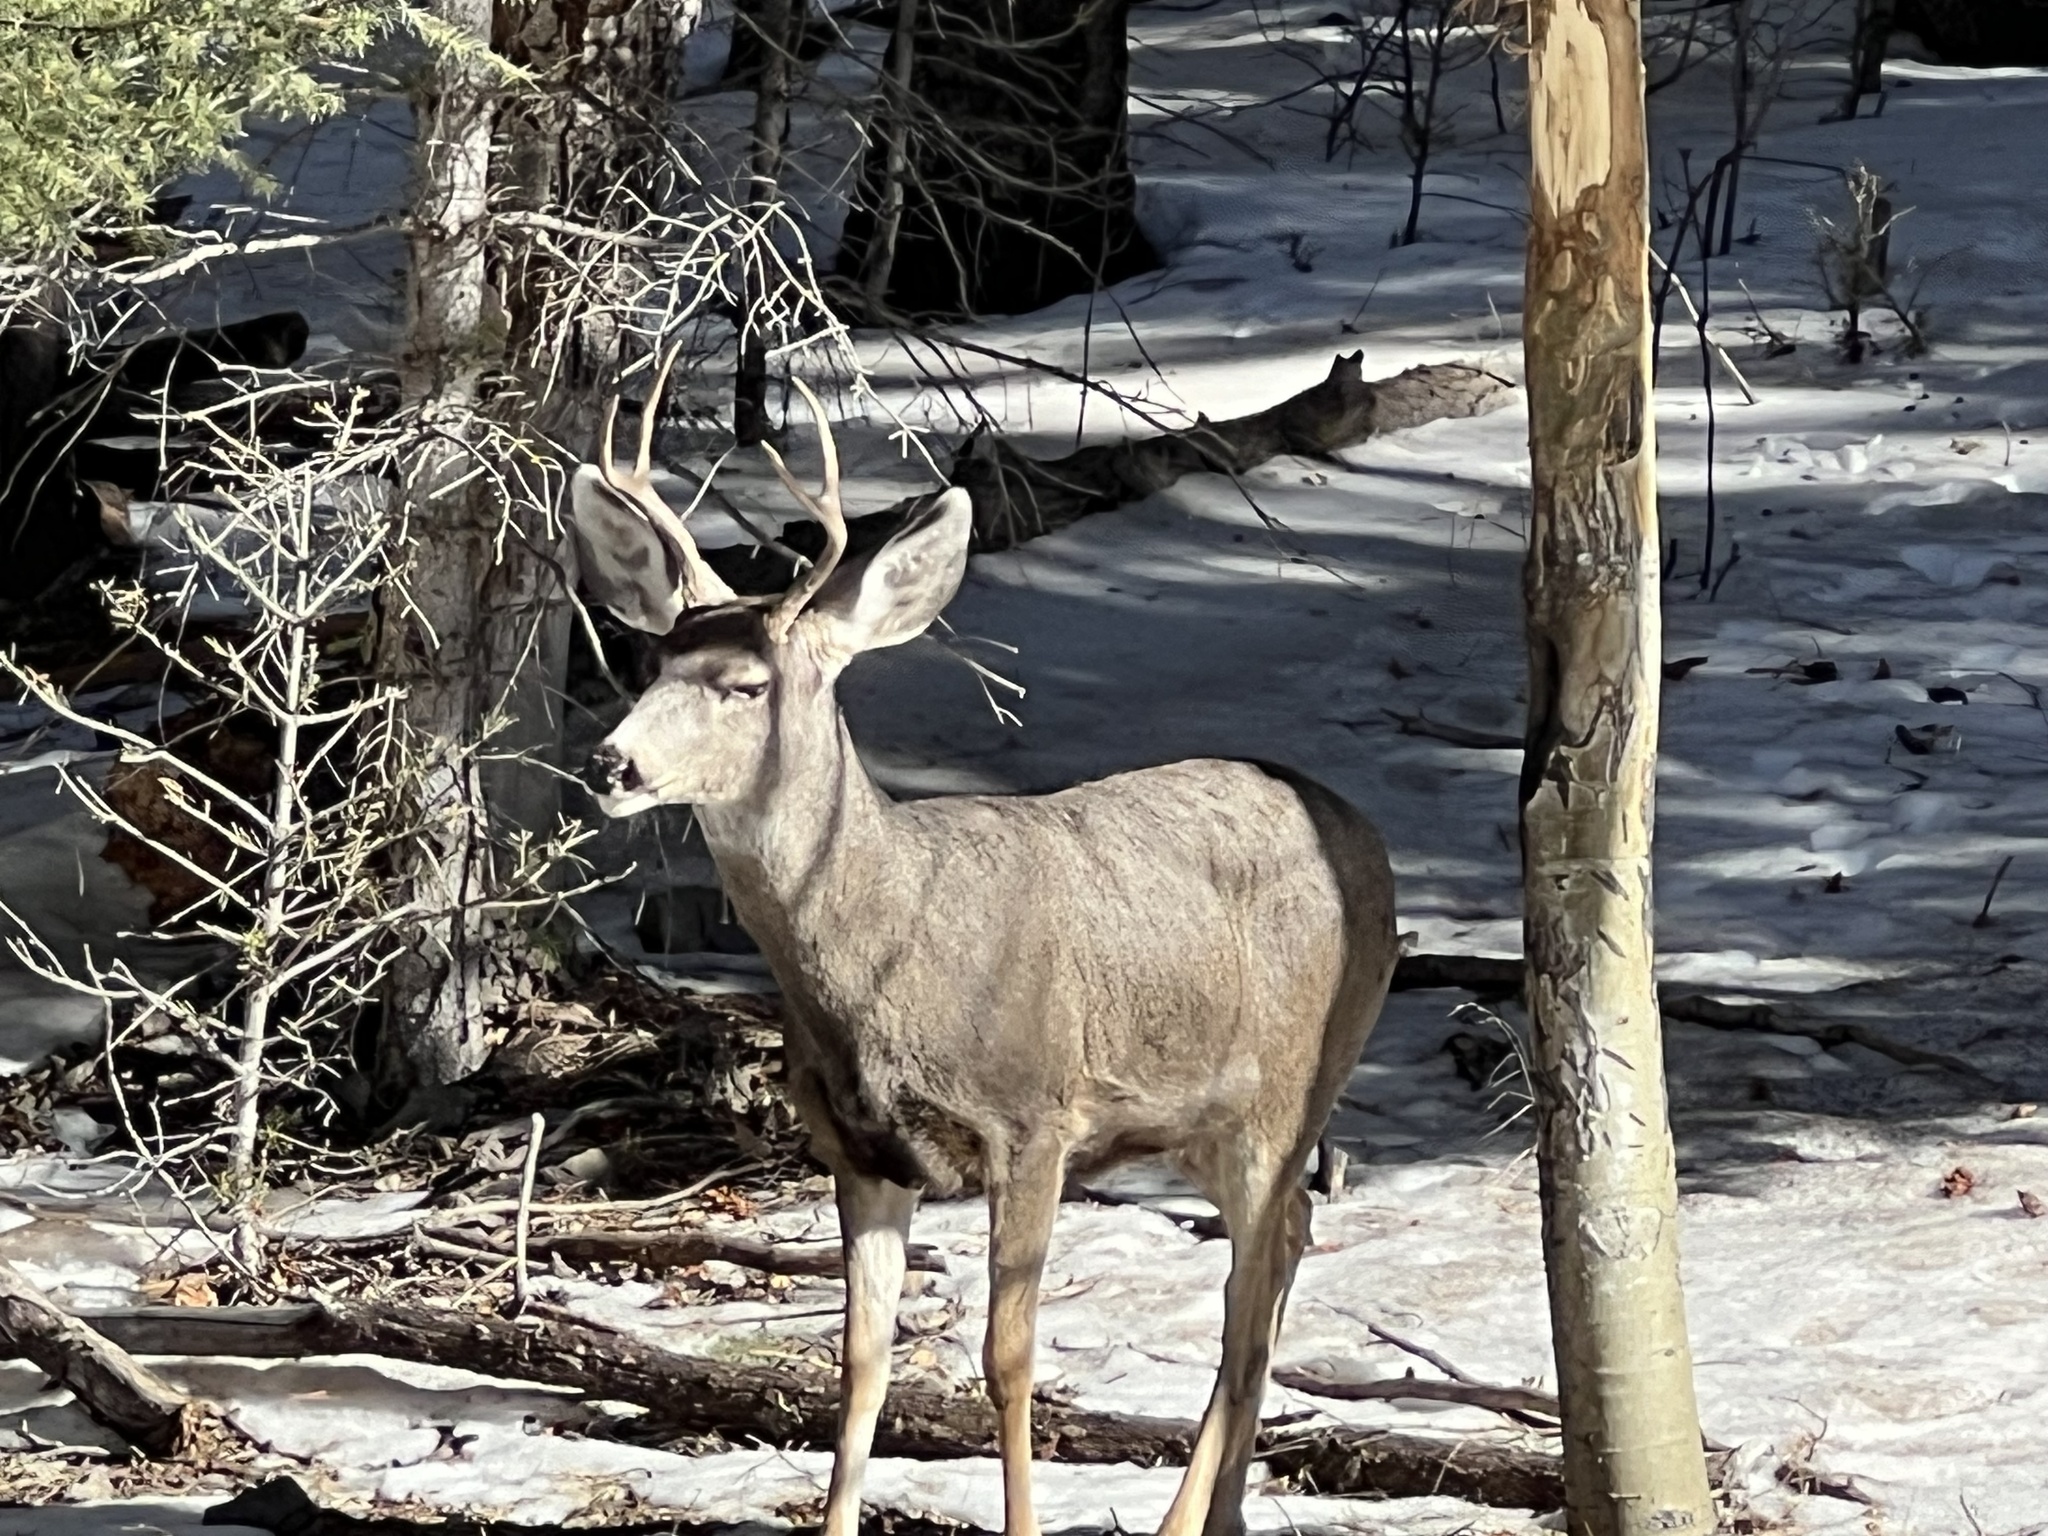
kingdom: Animalia
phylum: Chordata
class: Mammalia
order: Artiodactyla
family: Cervidae
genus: Odocoileus
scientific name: Odocoileus hemionus
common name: Mule deer
